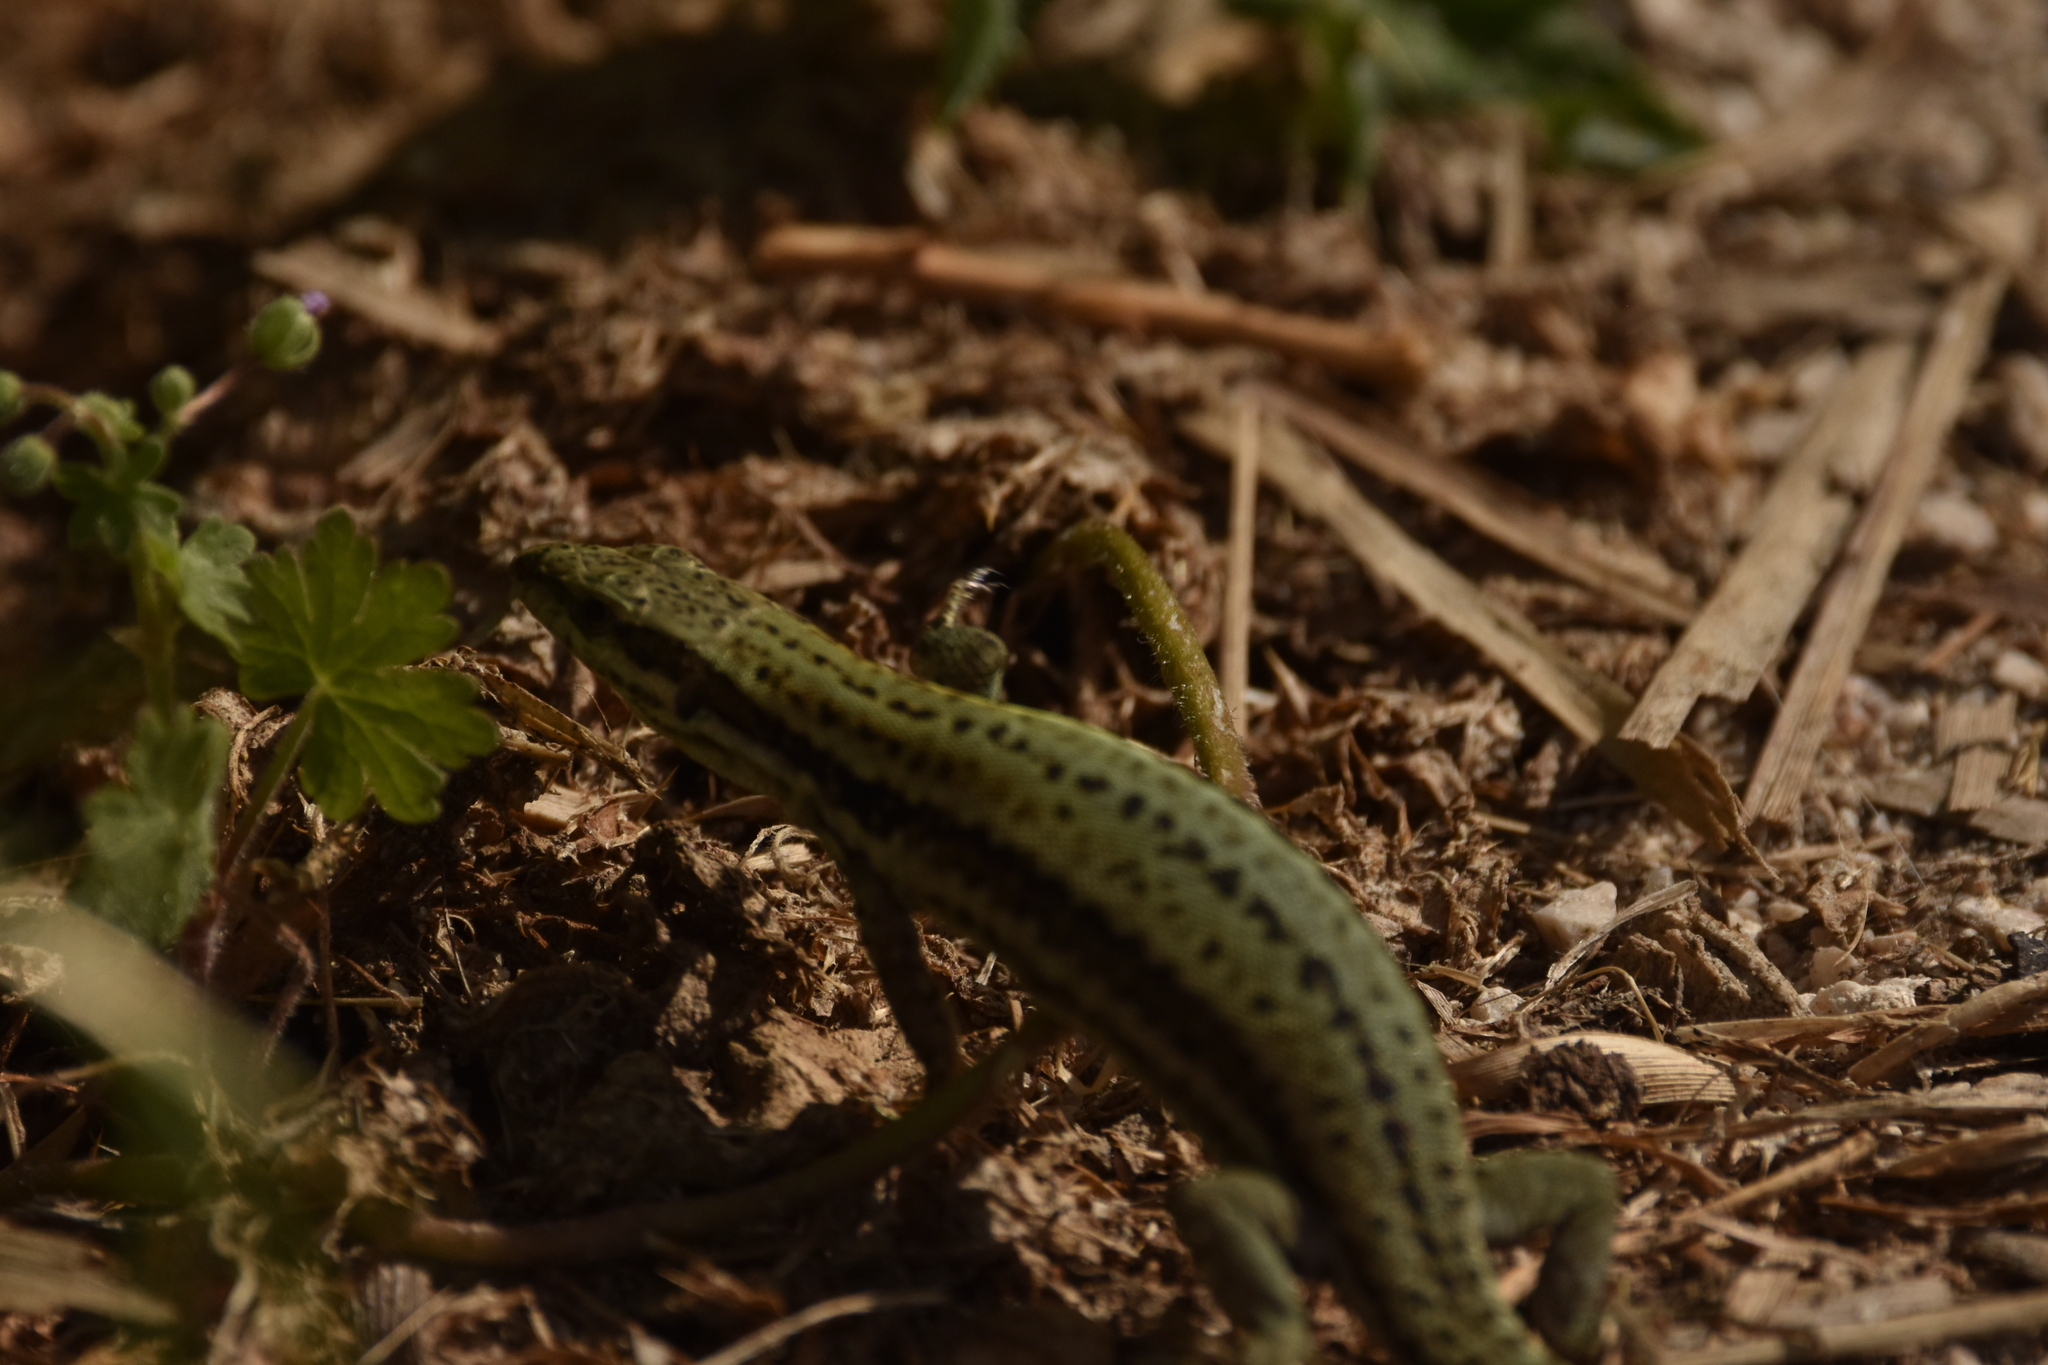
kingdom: Animalia
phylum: Chordata
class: Squamata
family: Lacertidae
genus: Podarcis
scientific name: Podarcis muralis
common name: Common wall lizard
